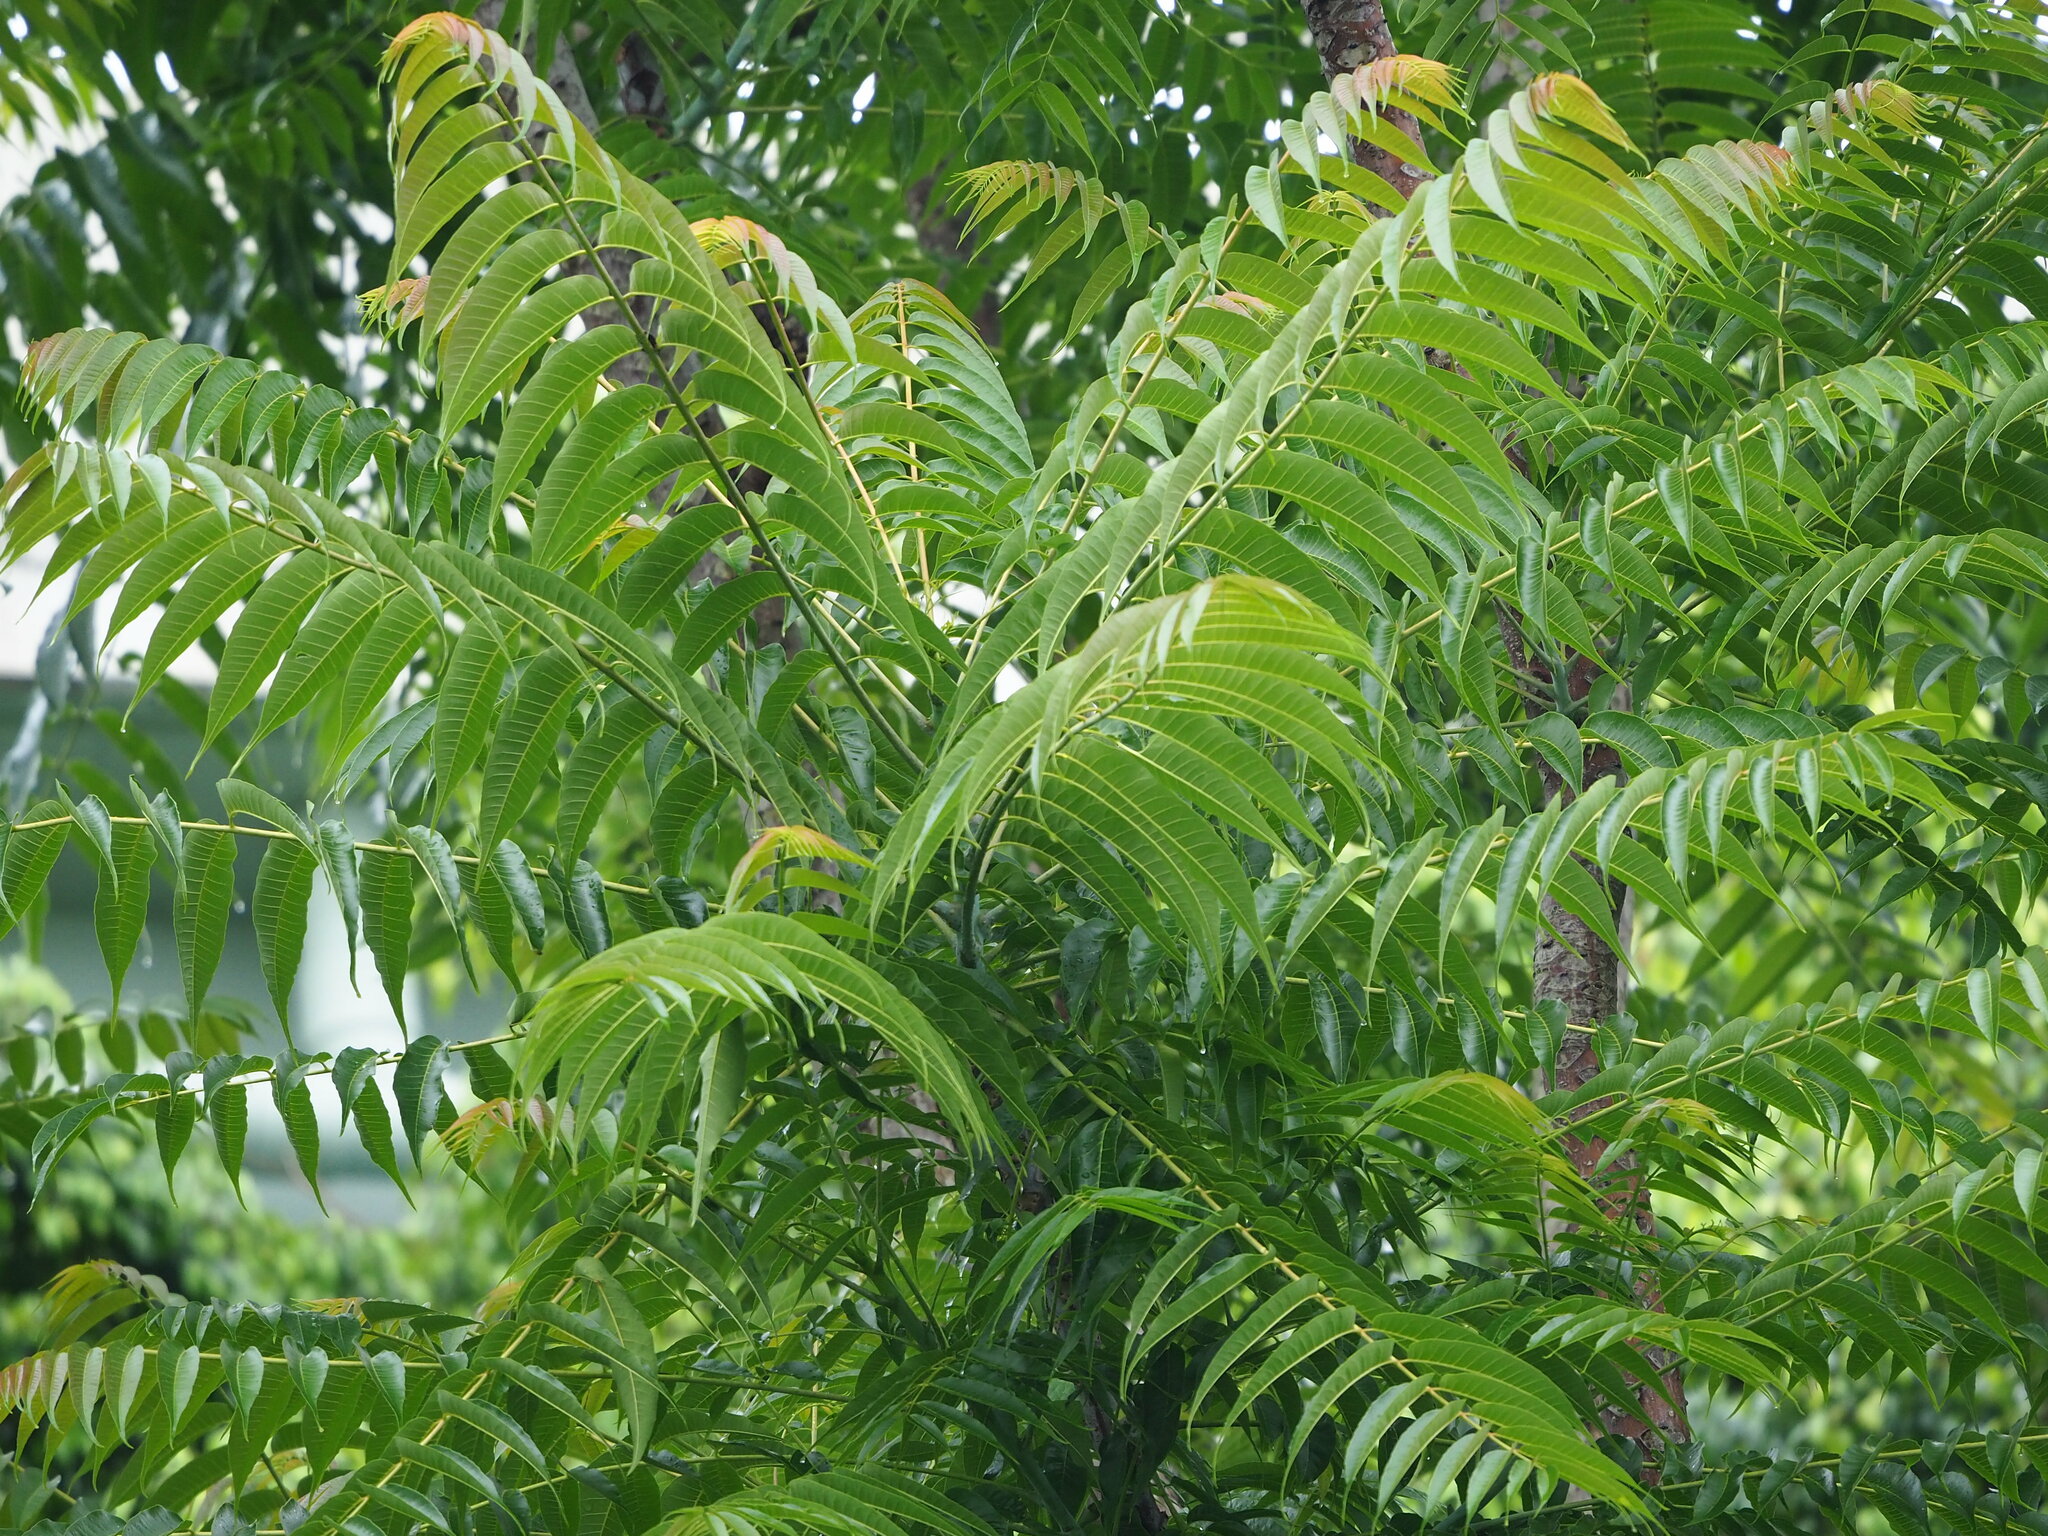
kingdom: Plantae
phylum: Tracheophyta
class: Magnoliopsida
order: Sapindales
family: Meliaceae
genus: Toona
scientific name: Toona sinensis
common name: Red toon
